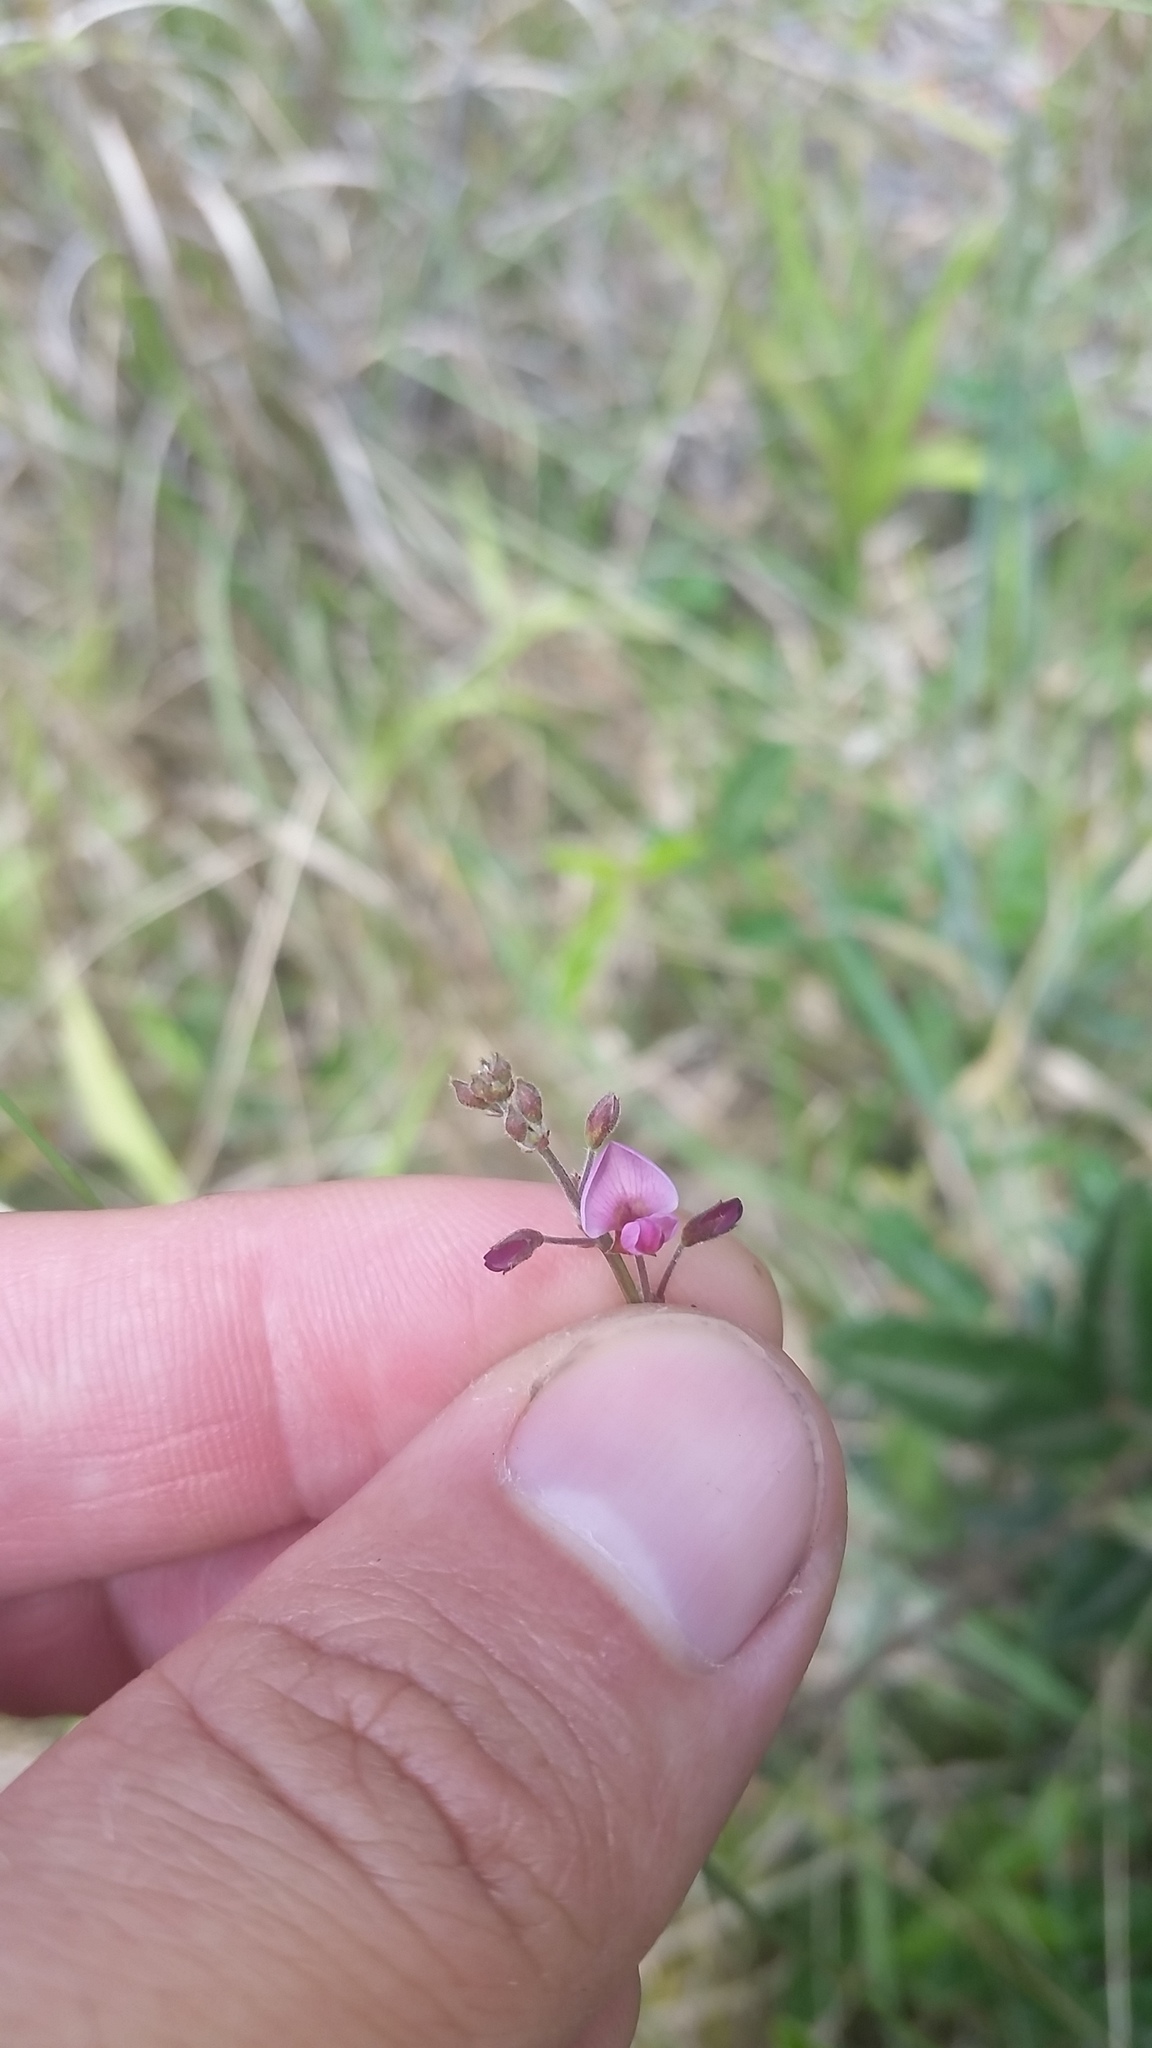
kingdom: Plantae
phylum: Tracheophyta
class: Magnoliopsida
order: Fabales
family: Fabaceae
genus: Desmodium
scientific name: Desmodium incanum
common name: Tickclover
